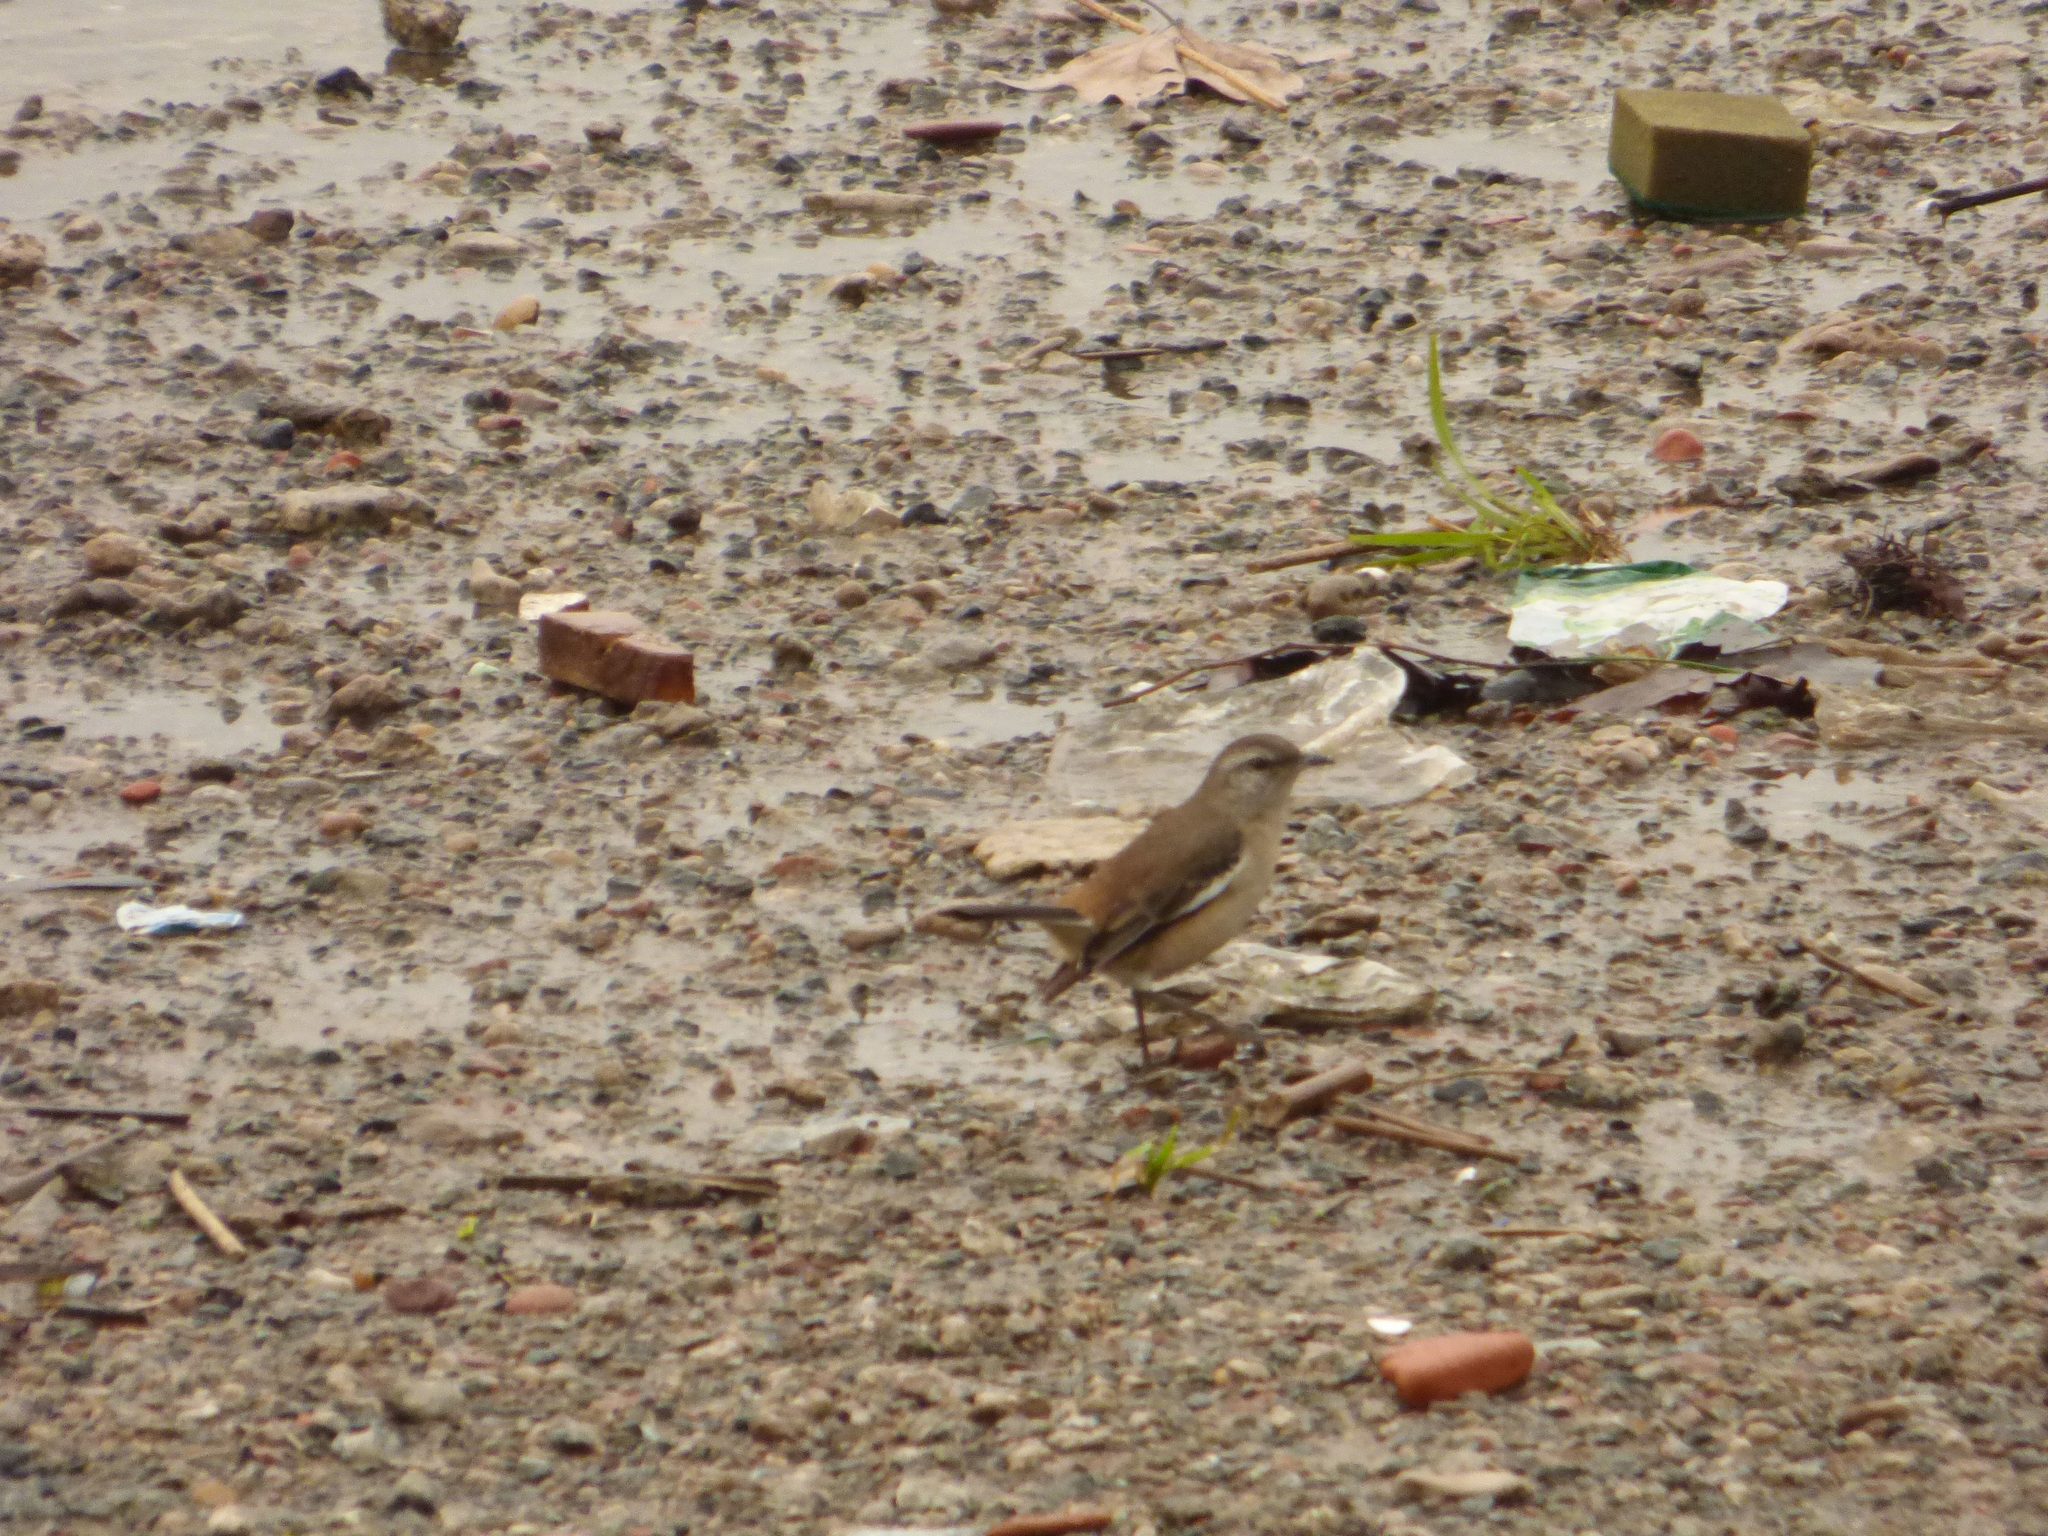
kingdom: Animalia
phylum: Chordata
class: Aves
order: Passeriformes
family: Mimidae
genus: Mimus
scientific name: Mimus triurus
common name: White-banded mockingbird
